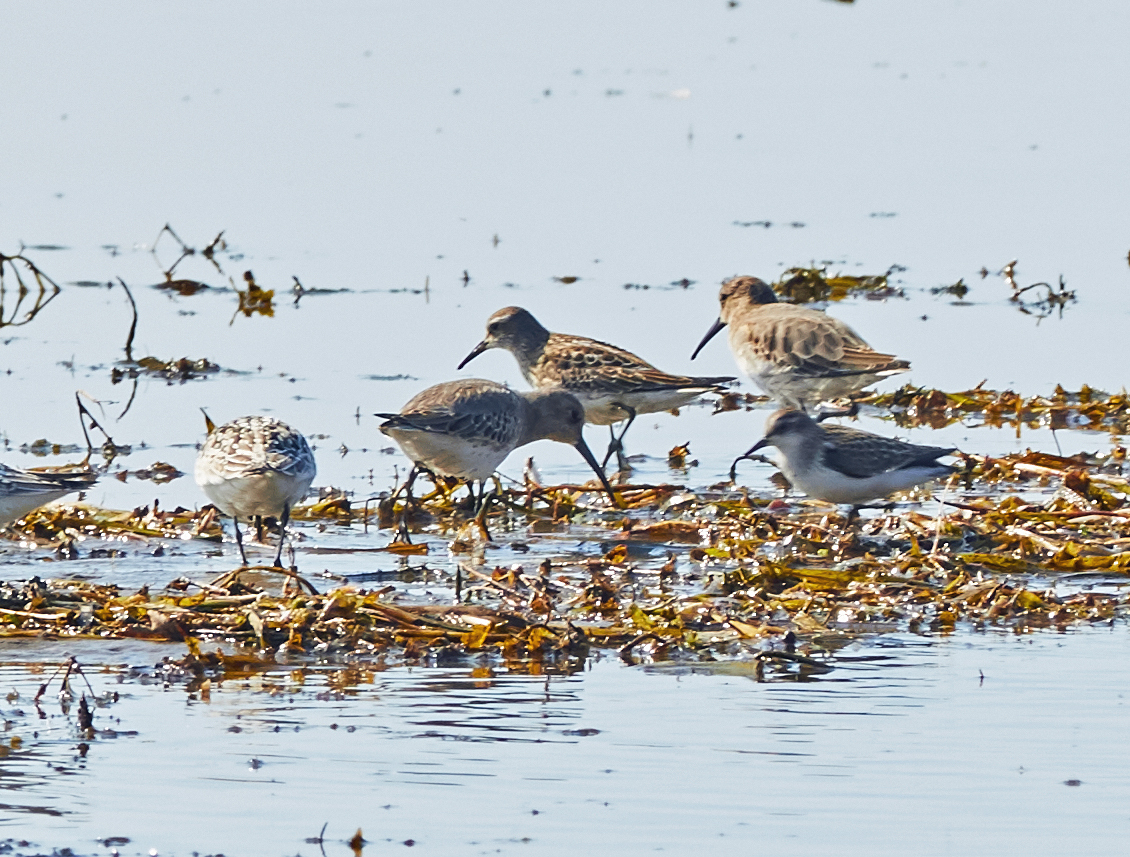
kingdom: Animalia
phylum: Chordata
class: Aves
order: Charadriiformes
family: Scolopacidae
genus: Calidris
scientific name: Calidris fuscicollis
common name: White-rumped sandpiper
